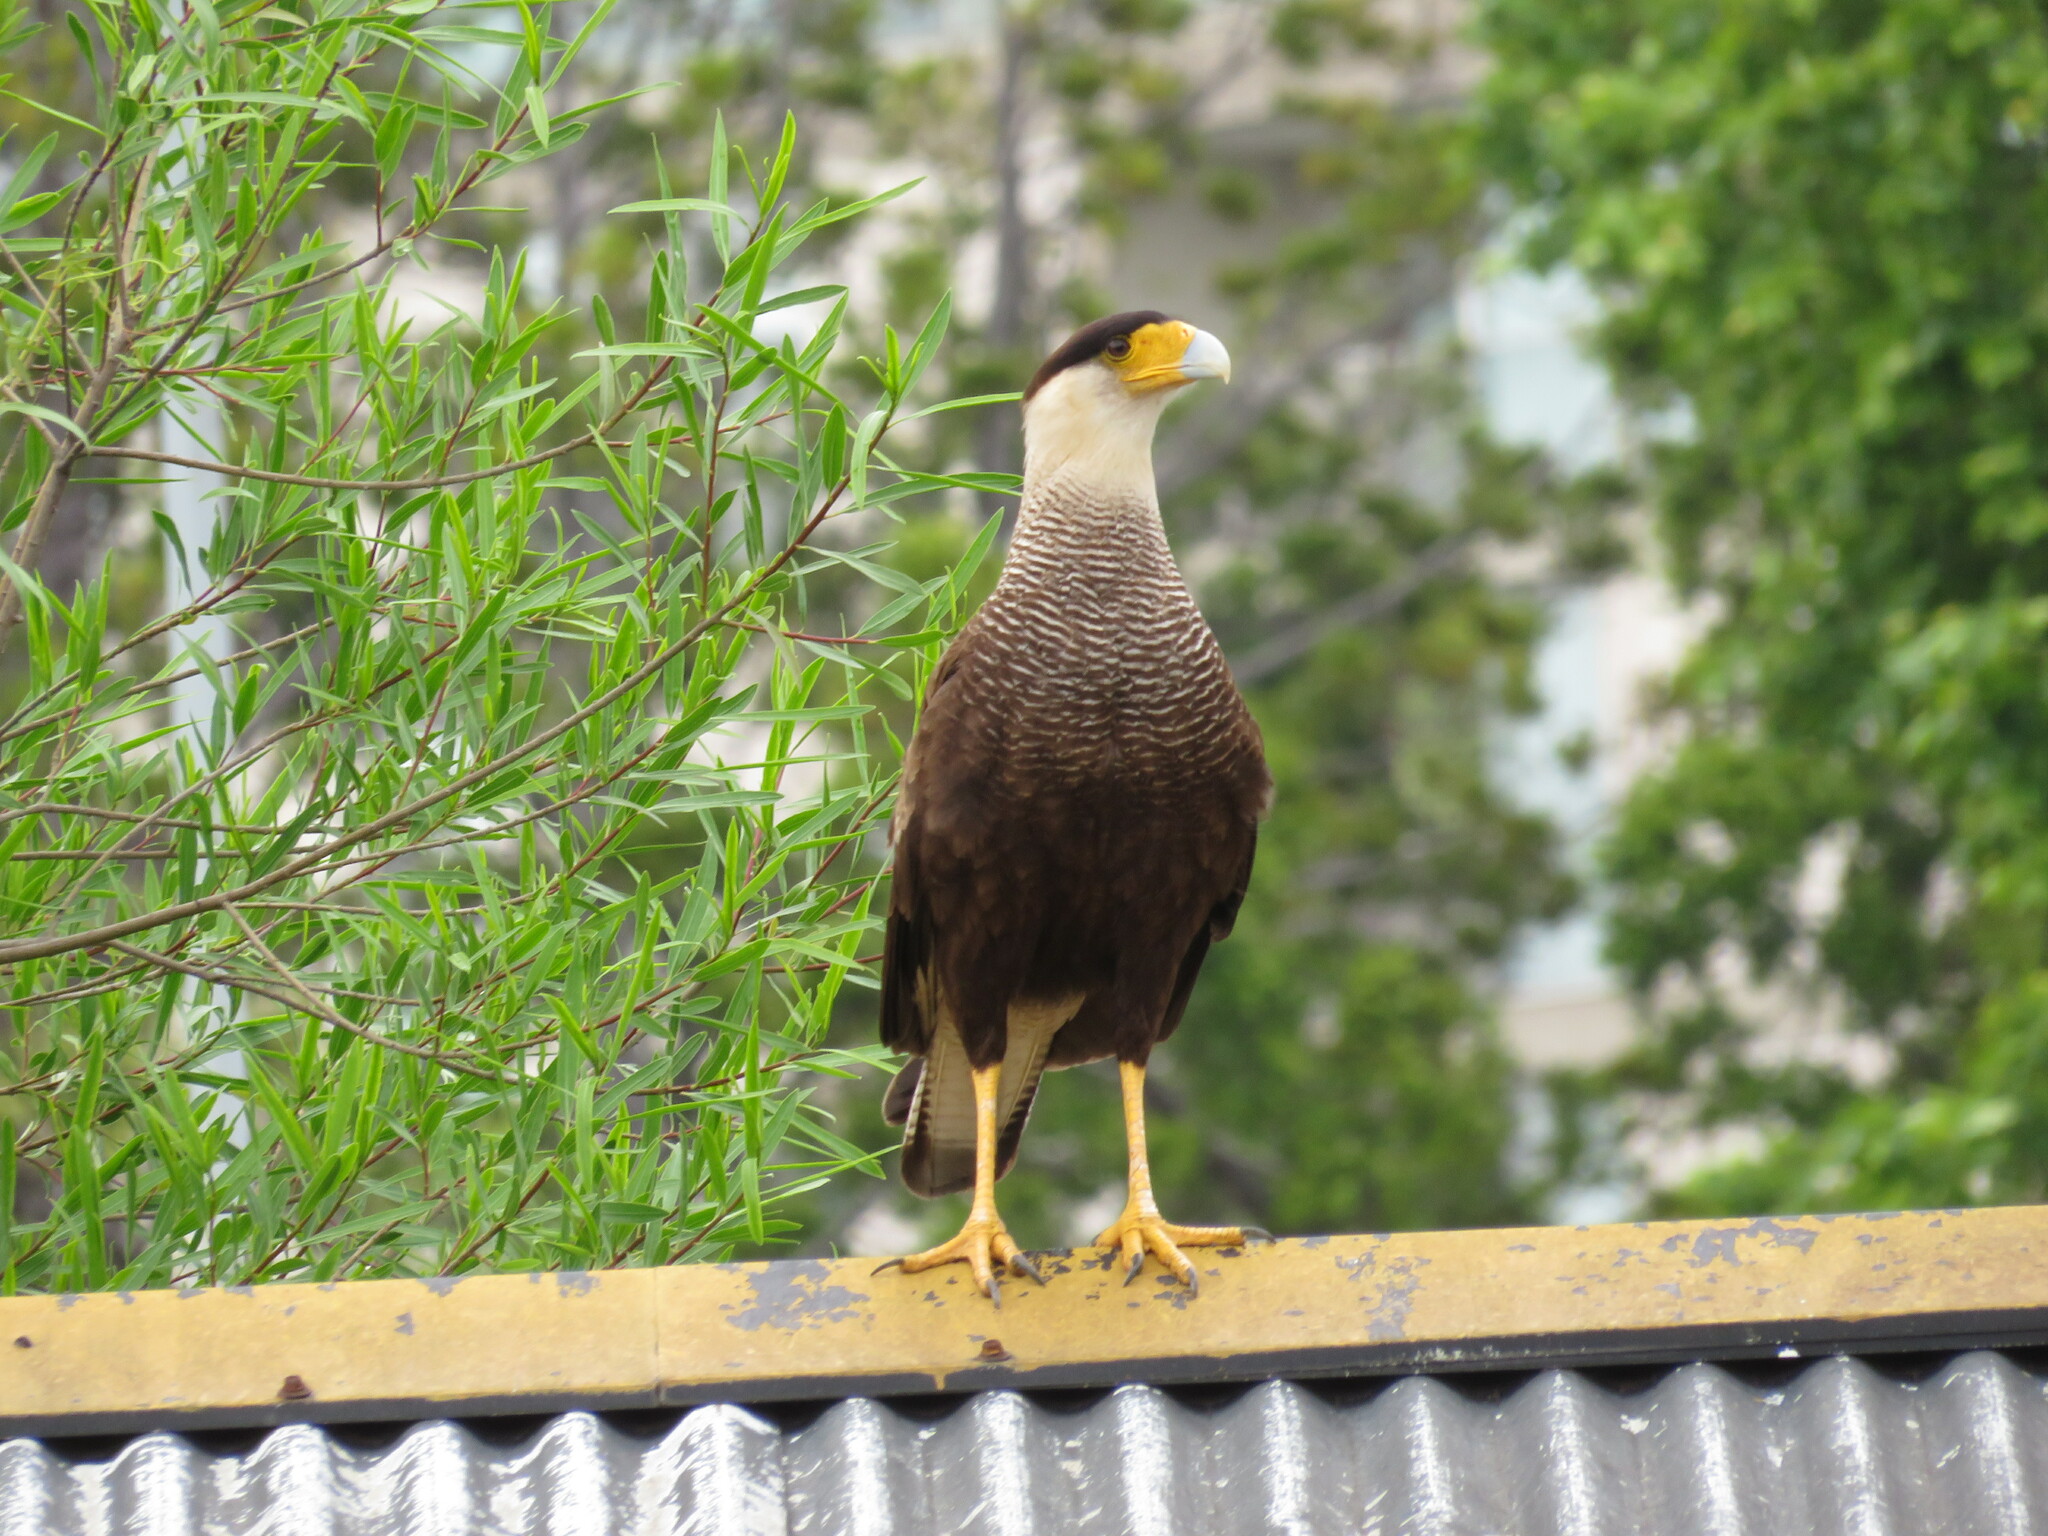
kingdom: Animalia
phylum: Chordata
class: Aves
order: Falconiformes
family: Falconidae
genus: Caracara
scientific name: Caracara plancus
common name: Southern caracara
